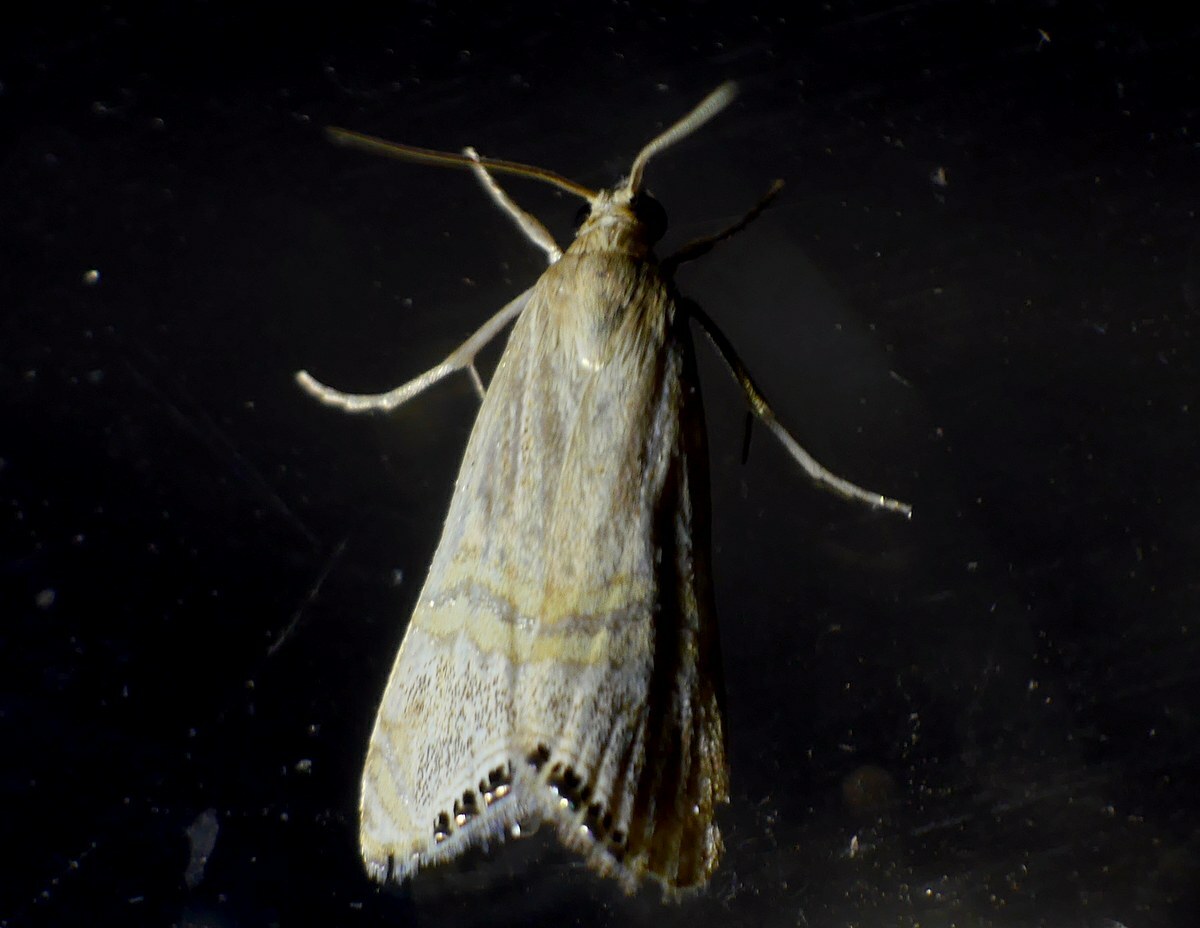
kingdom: Animalia
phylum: Arthropoda
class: Insecta
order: Lepidoptera
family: Crambidae
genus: Euchromius
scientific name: Euchromius ocellea
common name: Necklace veneer moth
